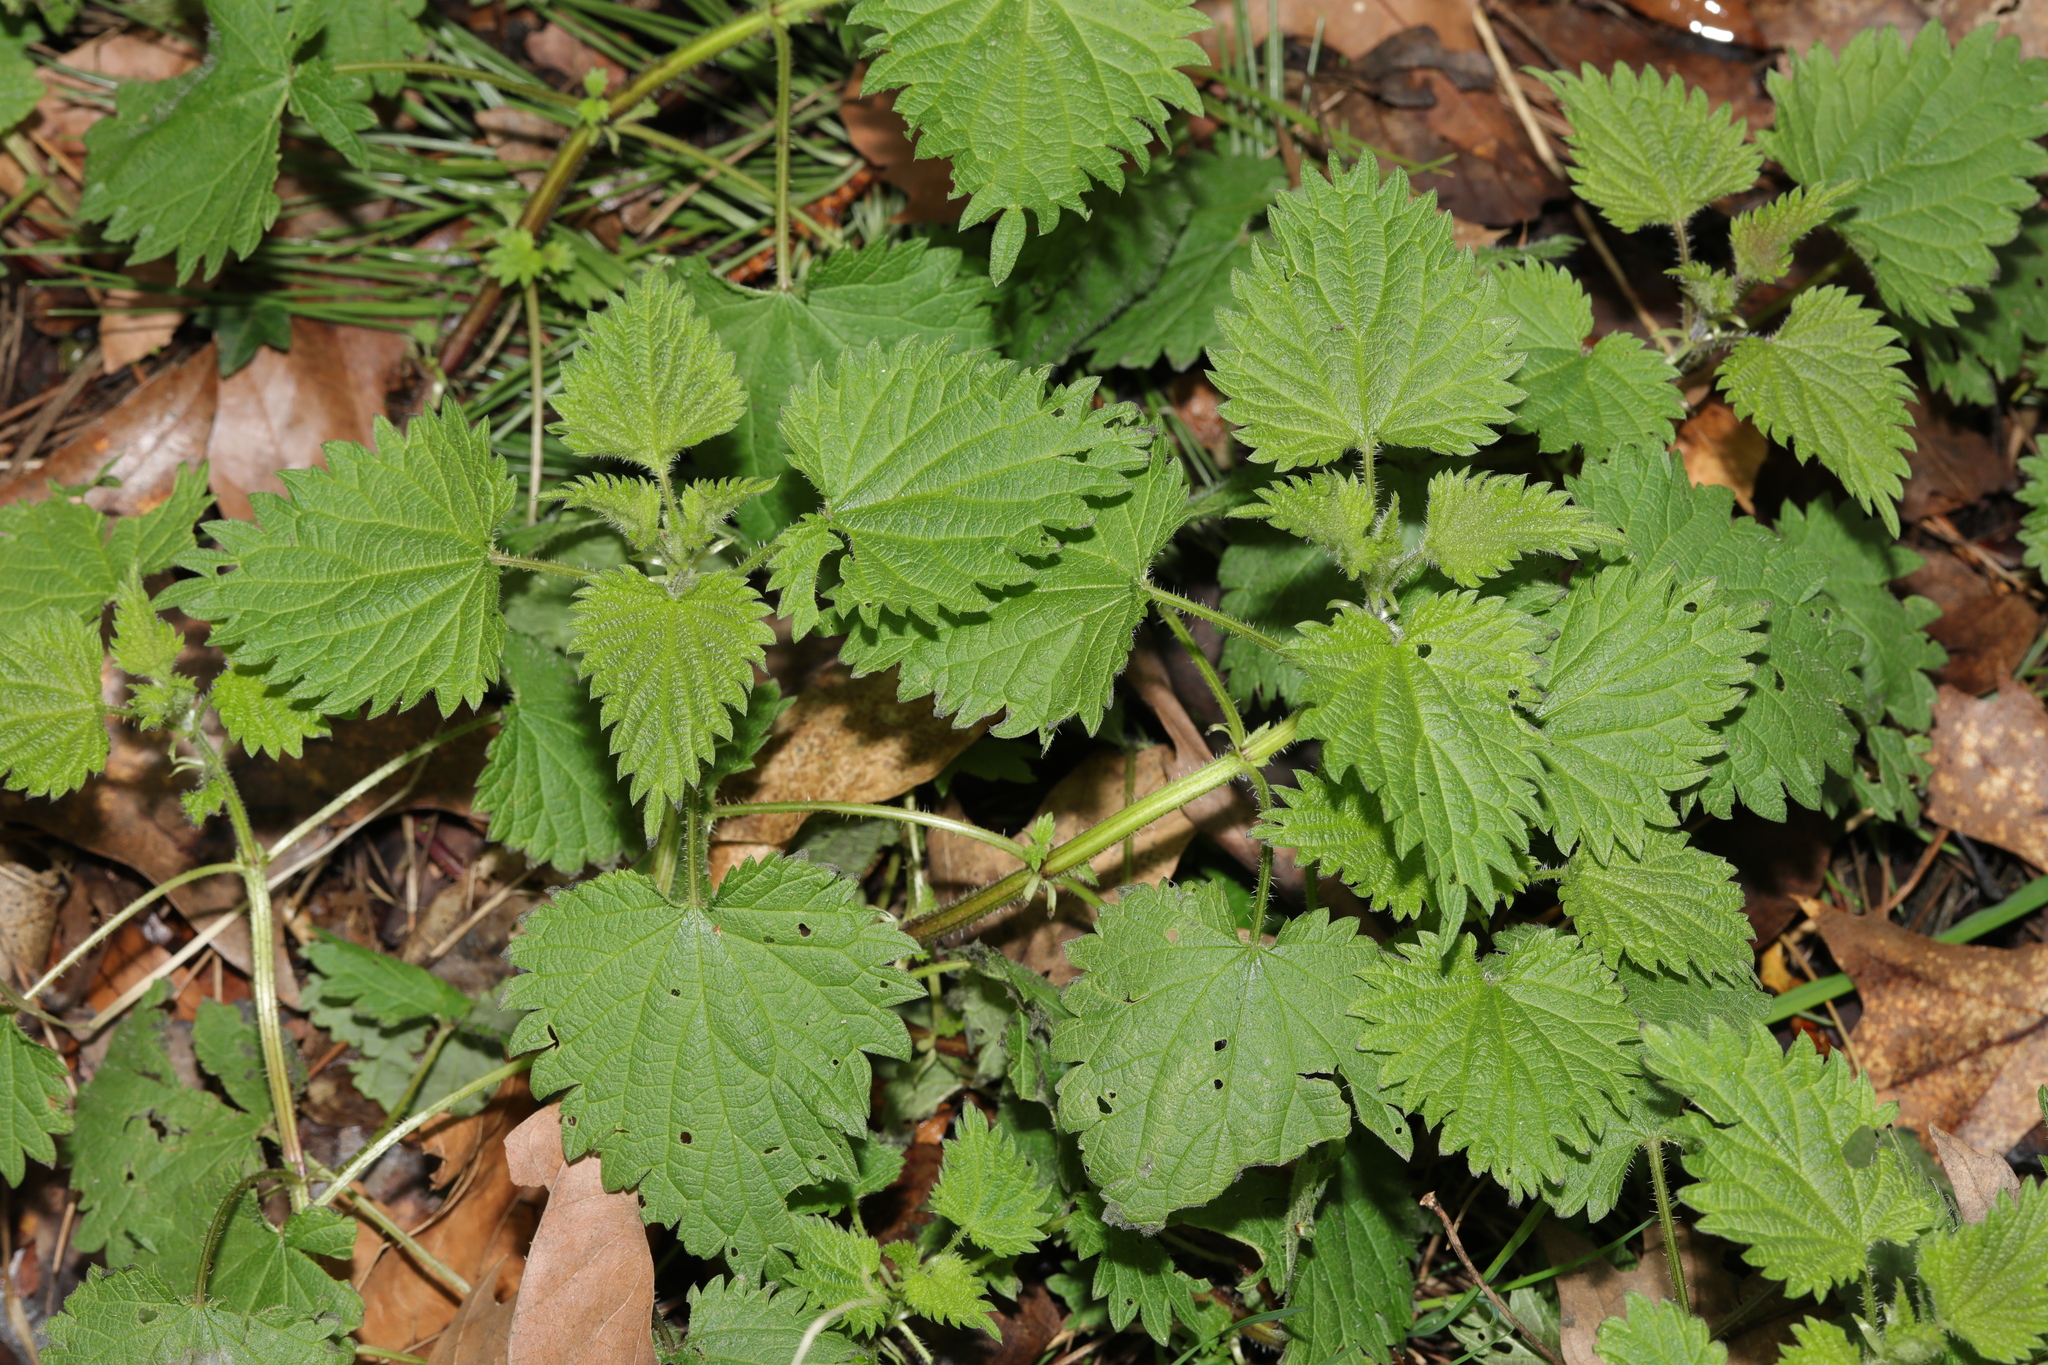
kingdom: Plantae
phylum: Tracheophyta
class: Magnoliopsida
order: Rosales
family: Urticaceae
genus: Urtica
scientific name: Urtica dioica
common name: Common nettle
